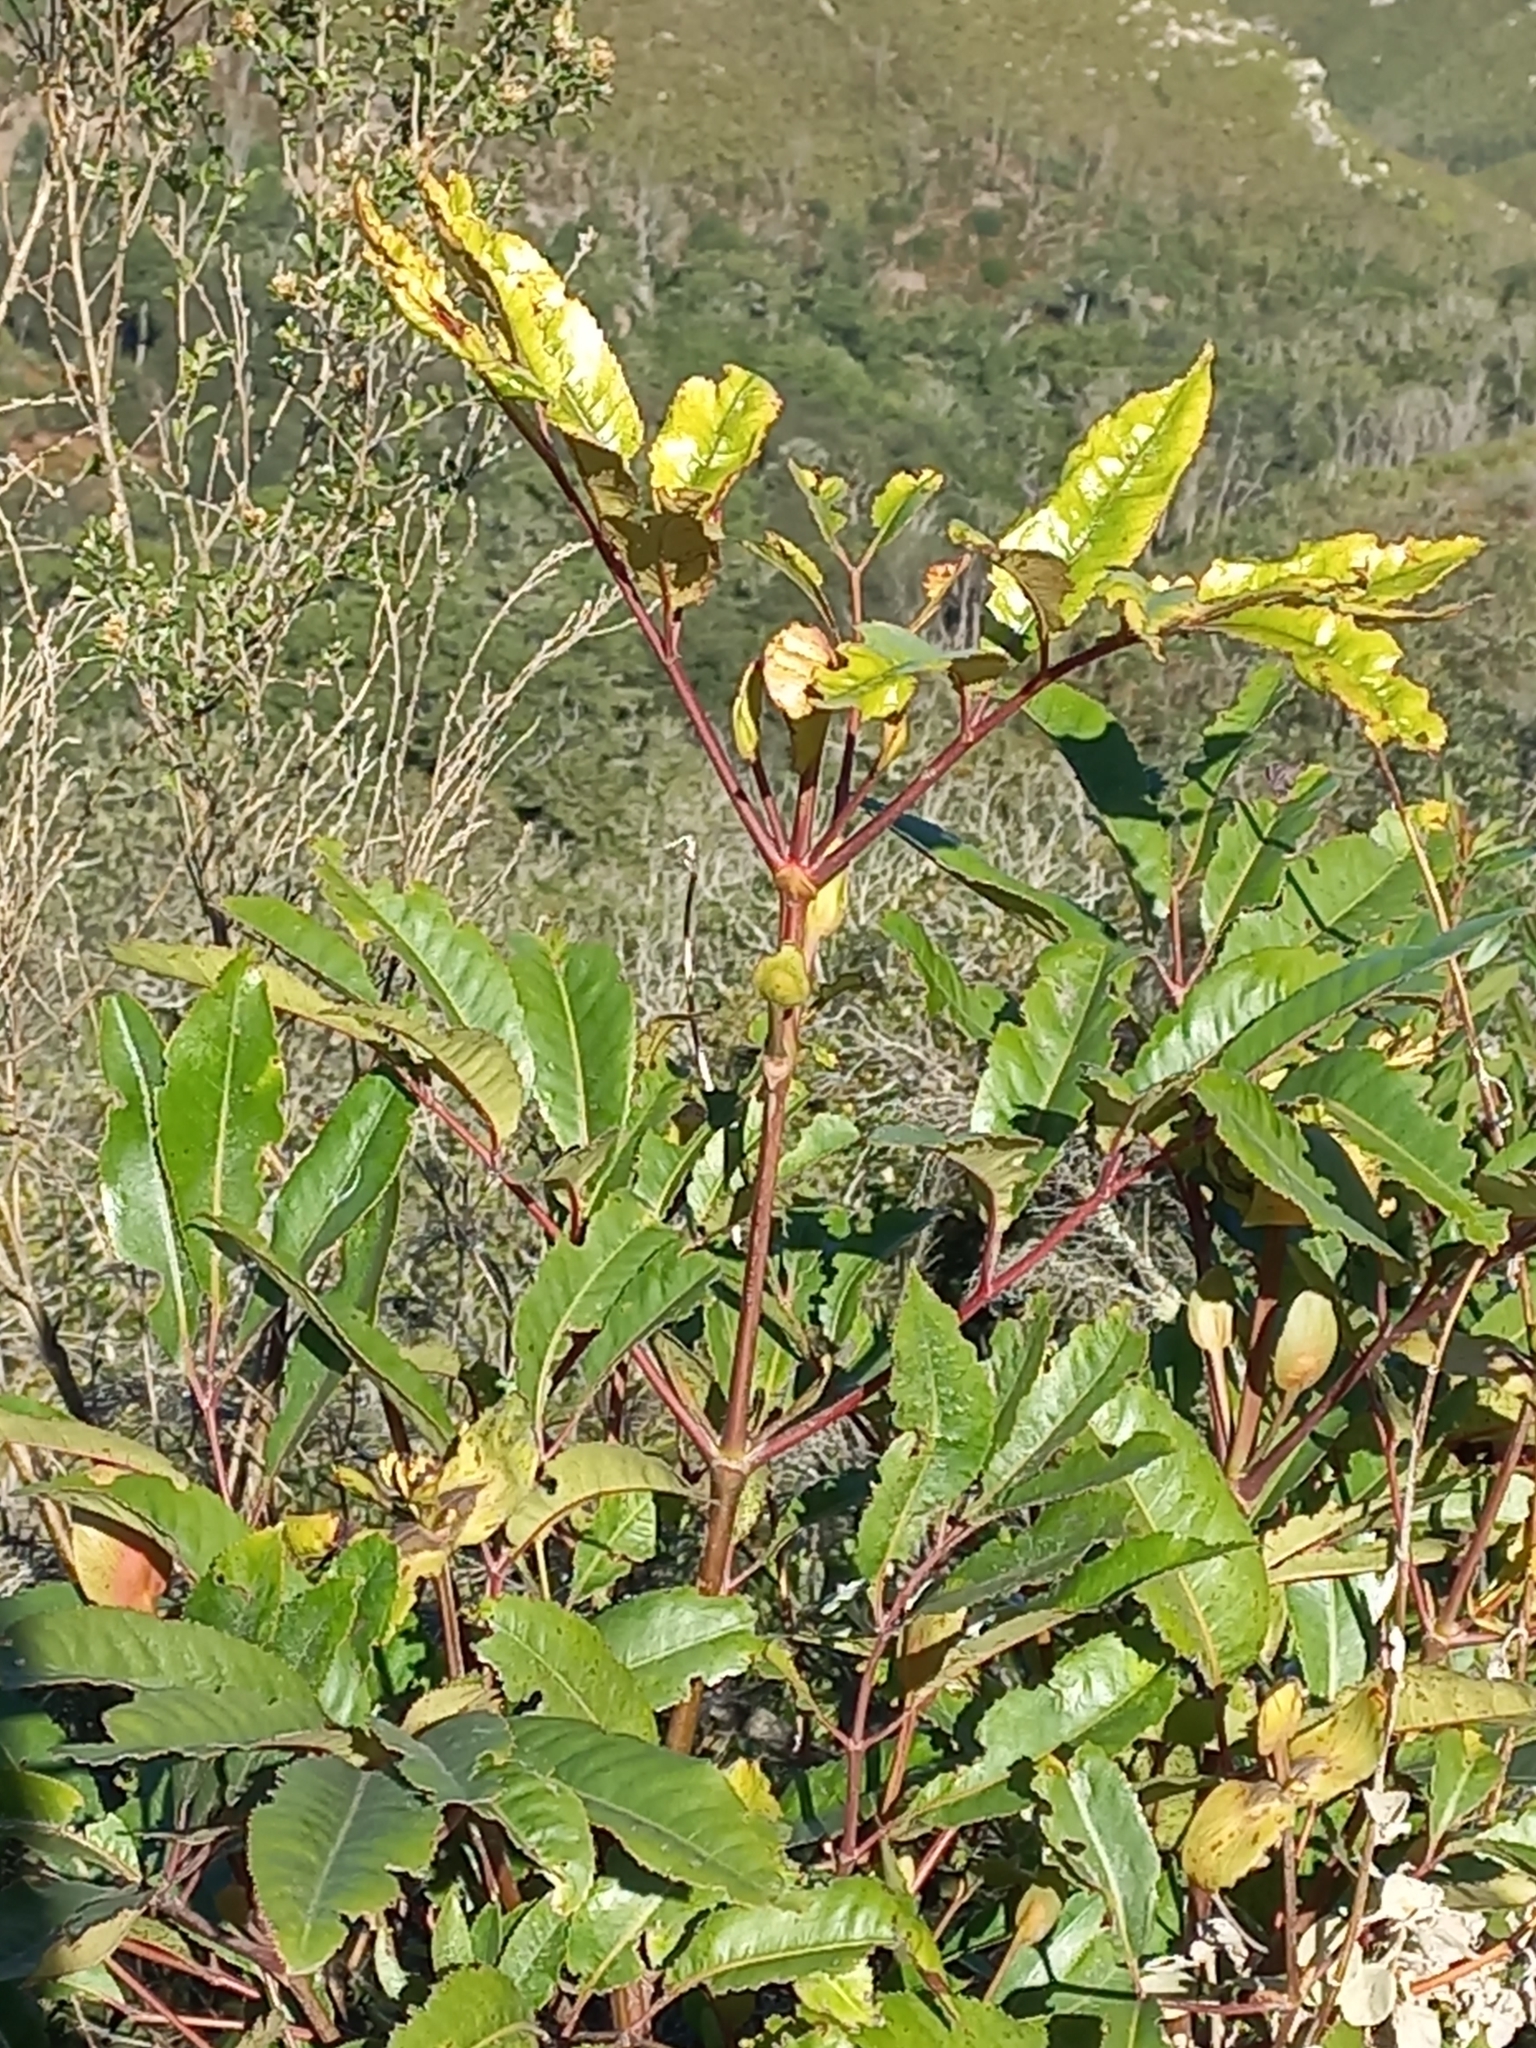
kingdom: Plantae
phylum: Tracheophyta
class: Magnoliopsida
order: Oxalidales
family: Cunoniaceae
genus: Cunonia
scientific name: Cunonia capensis
